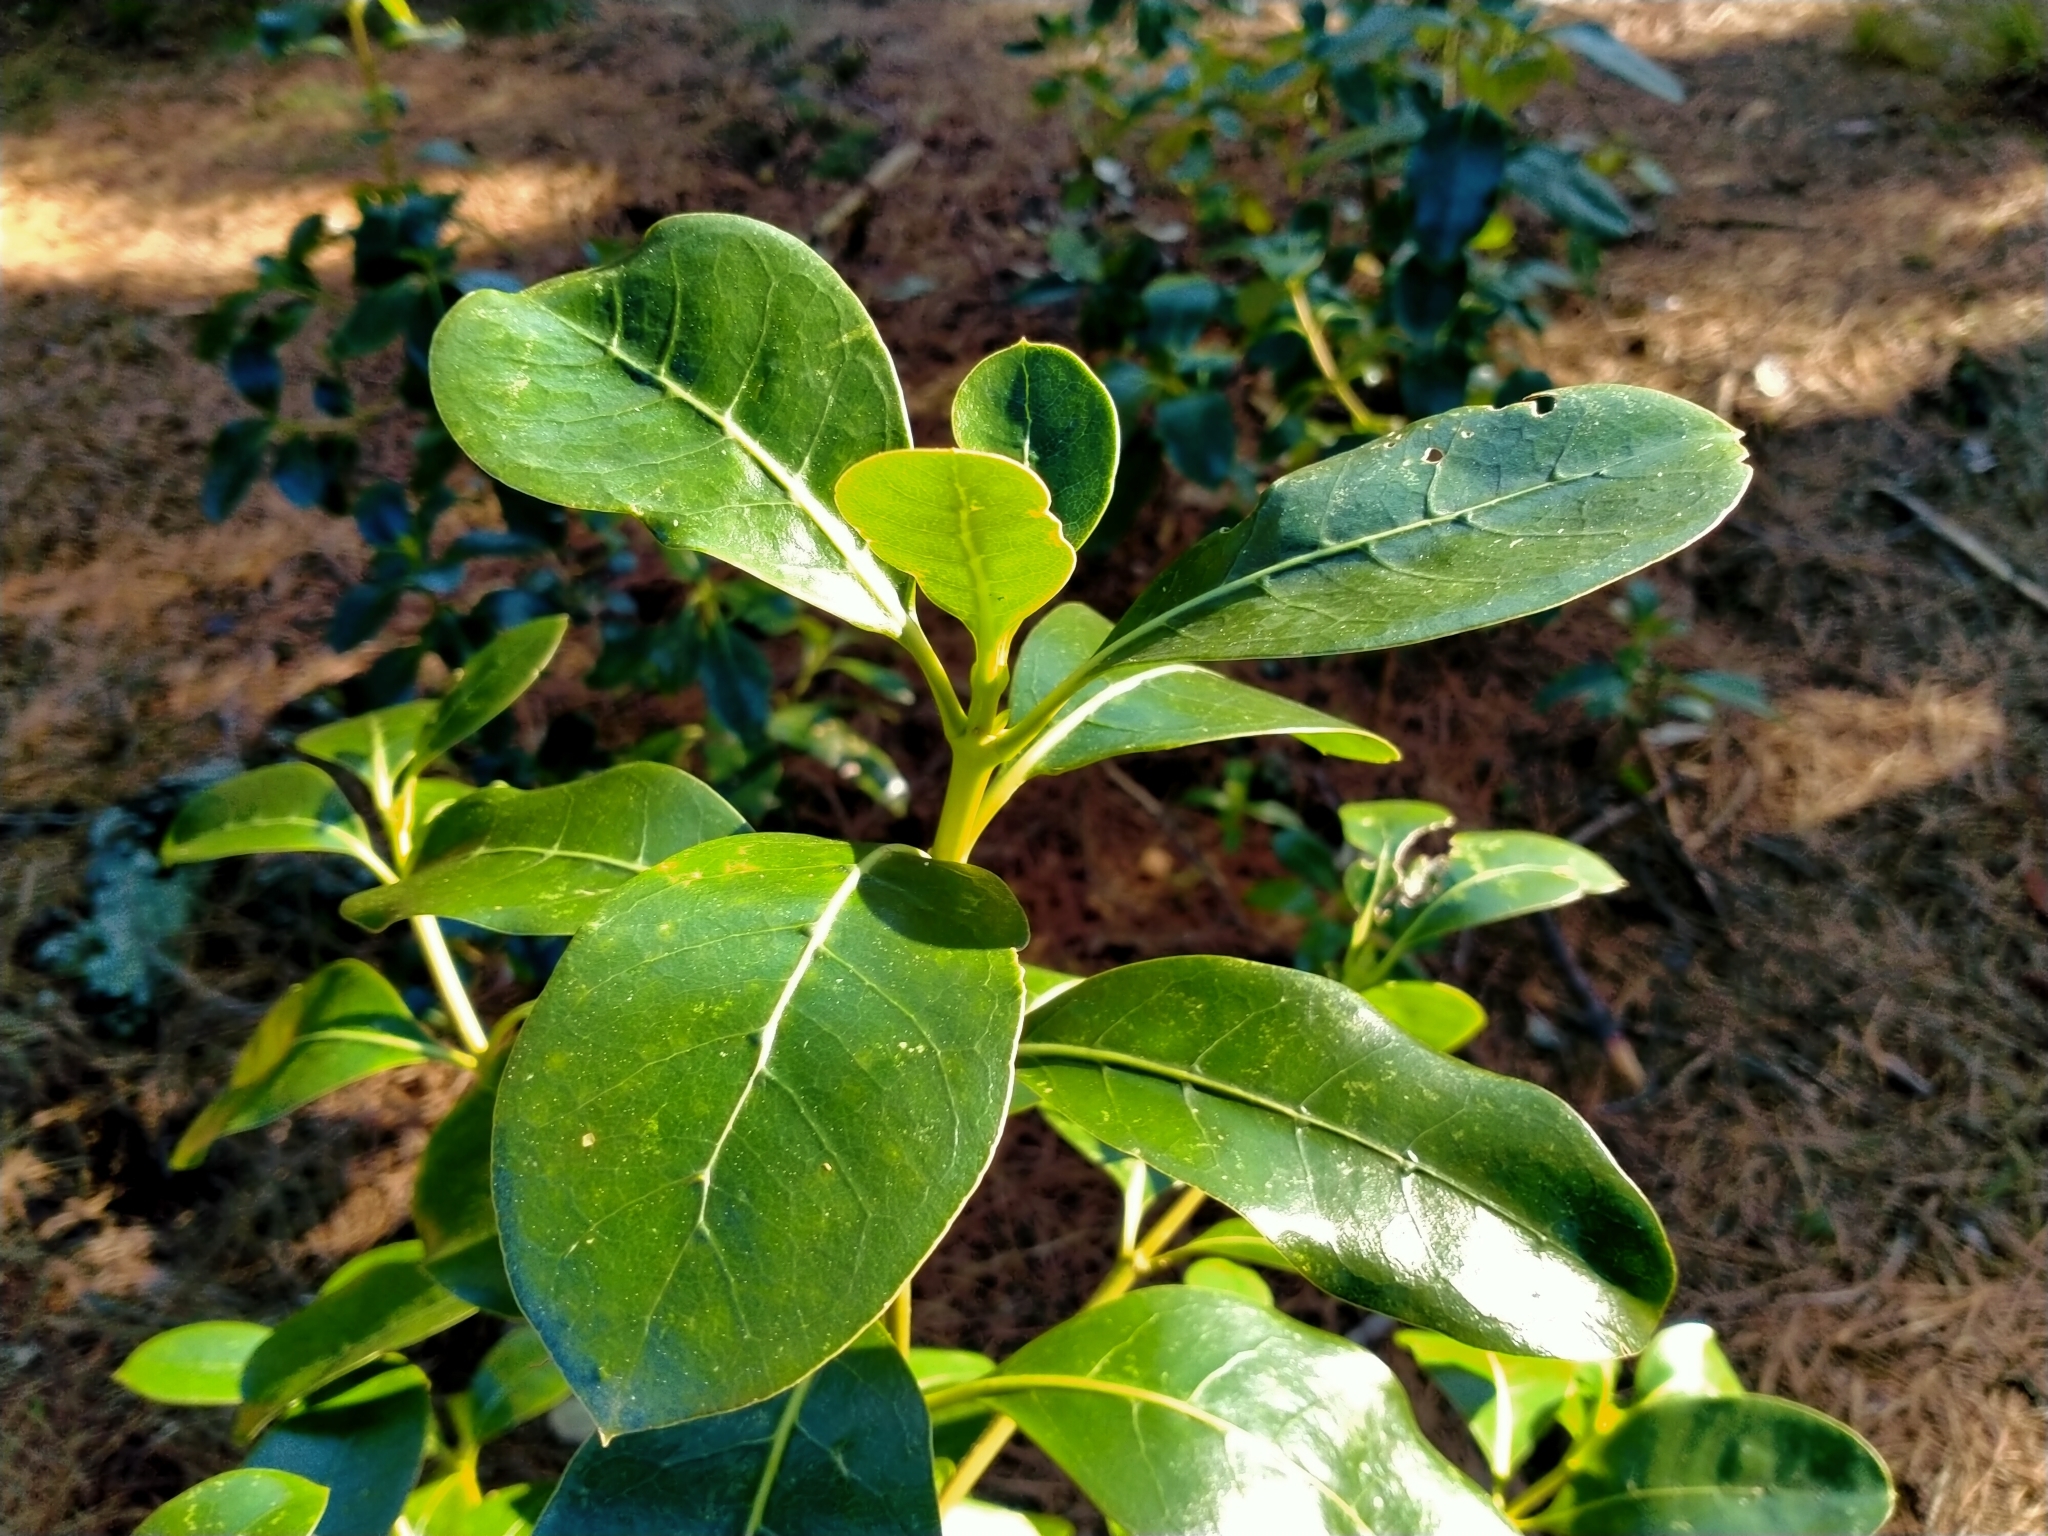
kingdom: Plantae
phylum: Tracheophyta
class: Magnoliopsida
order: Gentianales
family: Rubiaceae
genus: Coprosma
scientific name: Coprosma lucida
